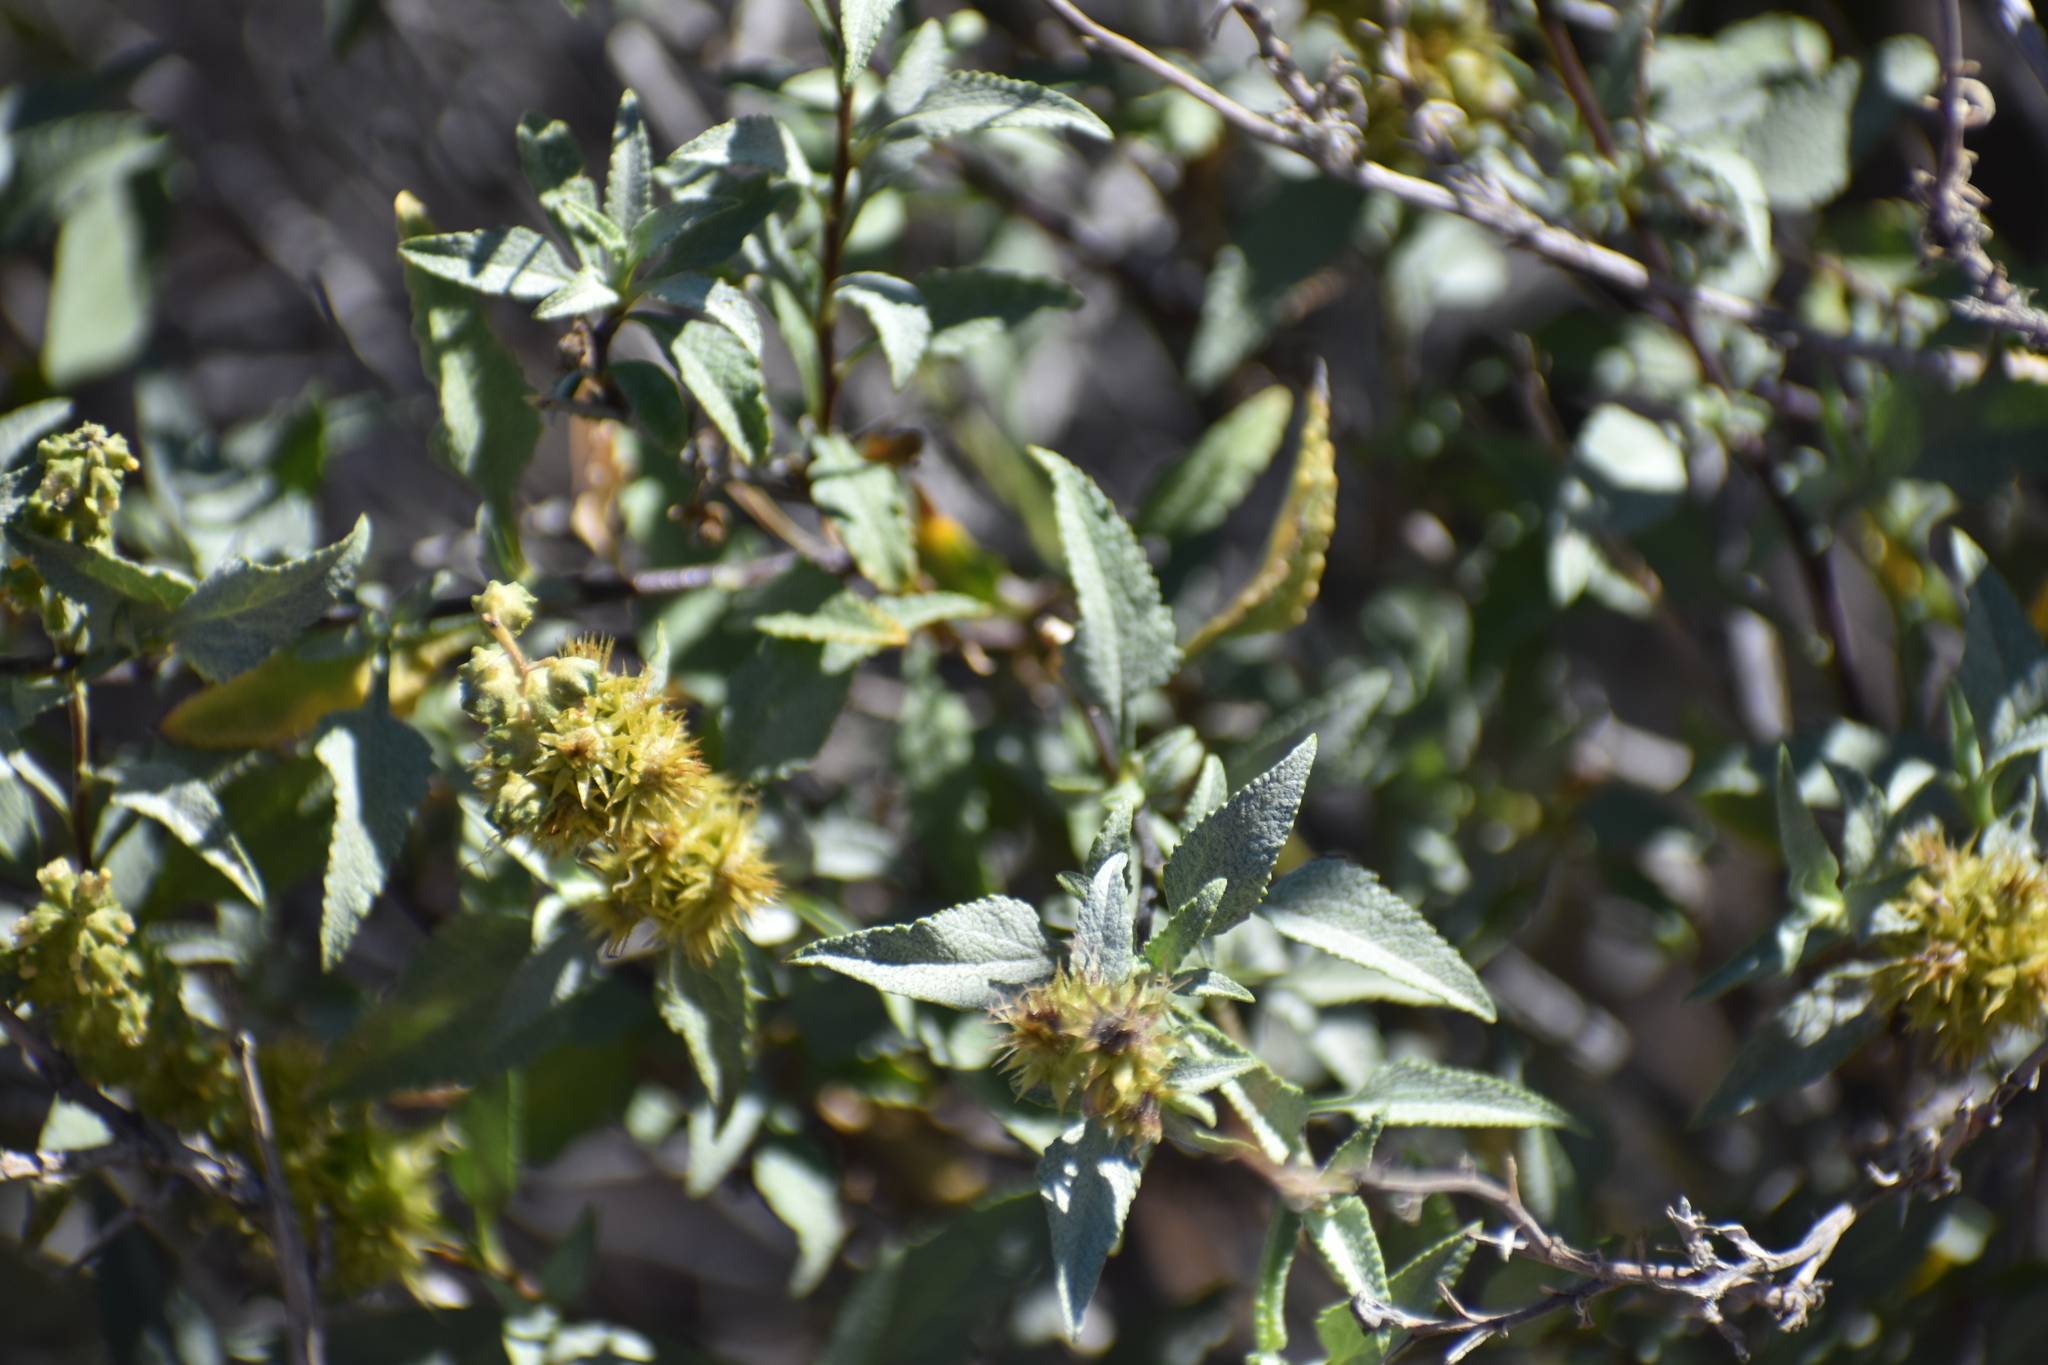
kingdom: Plantae
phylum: Tracheophyta
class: Magnoliopsida
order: Asterales
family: Asteraceae
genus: Ambrosia
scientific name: Ambrosia deltoidea
